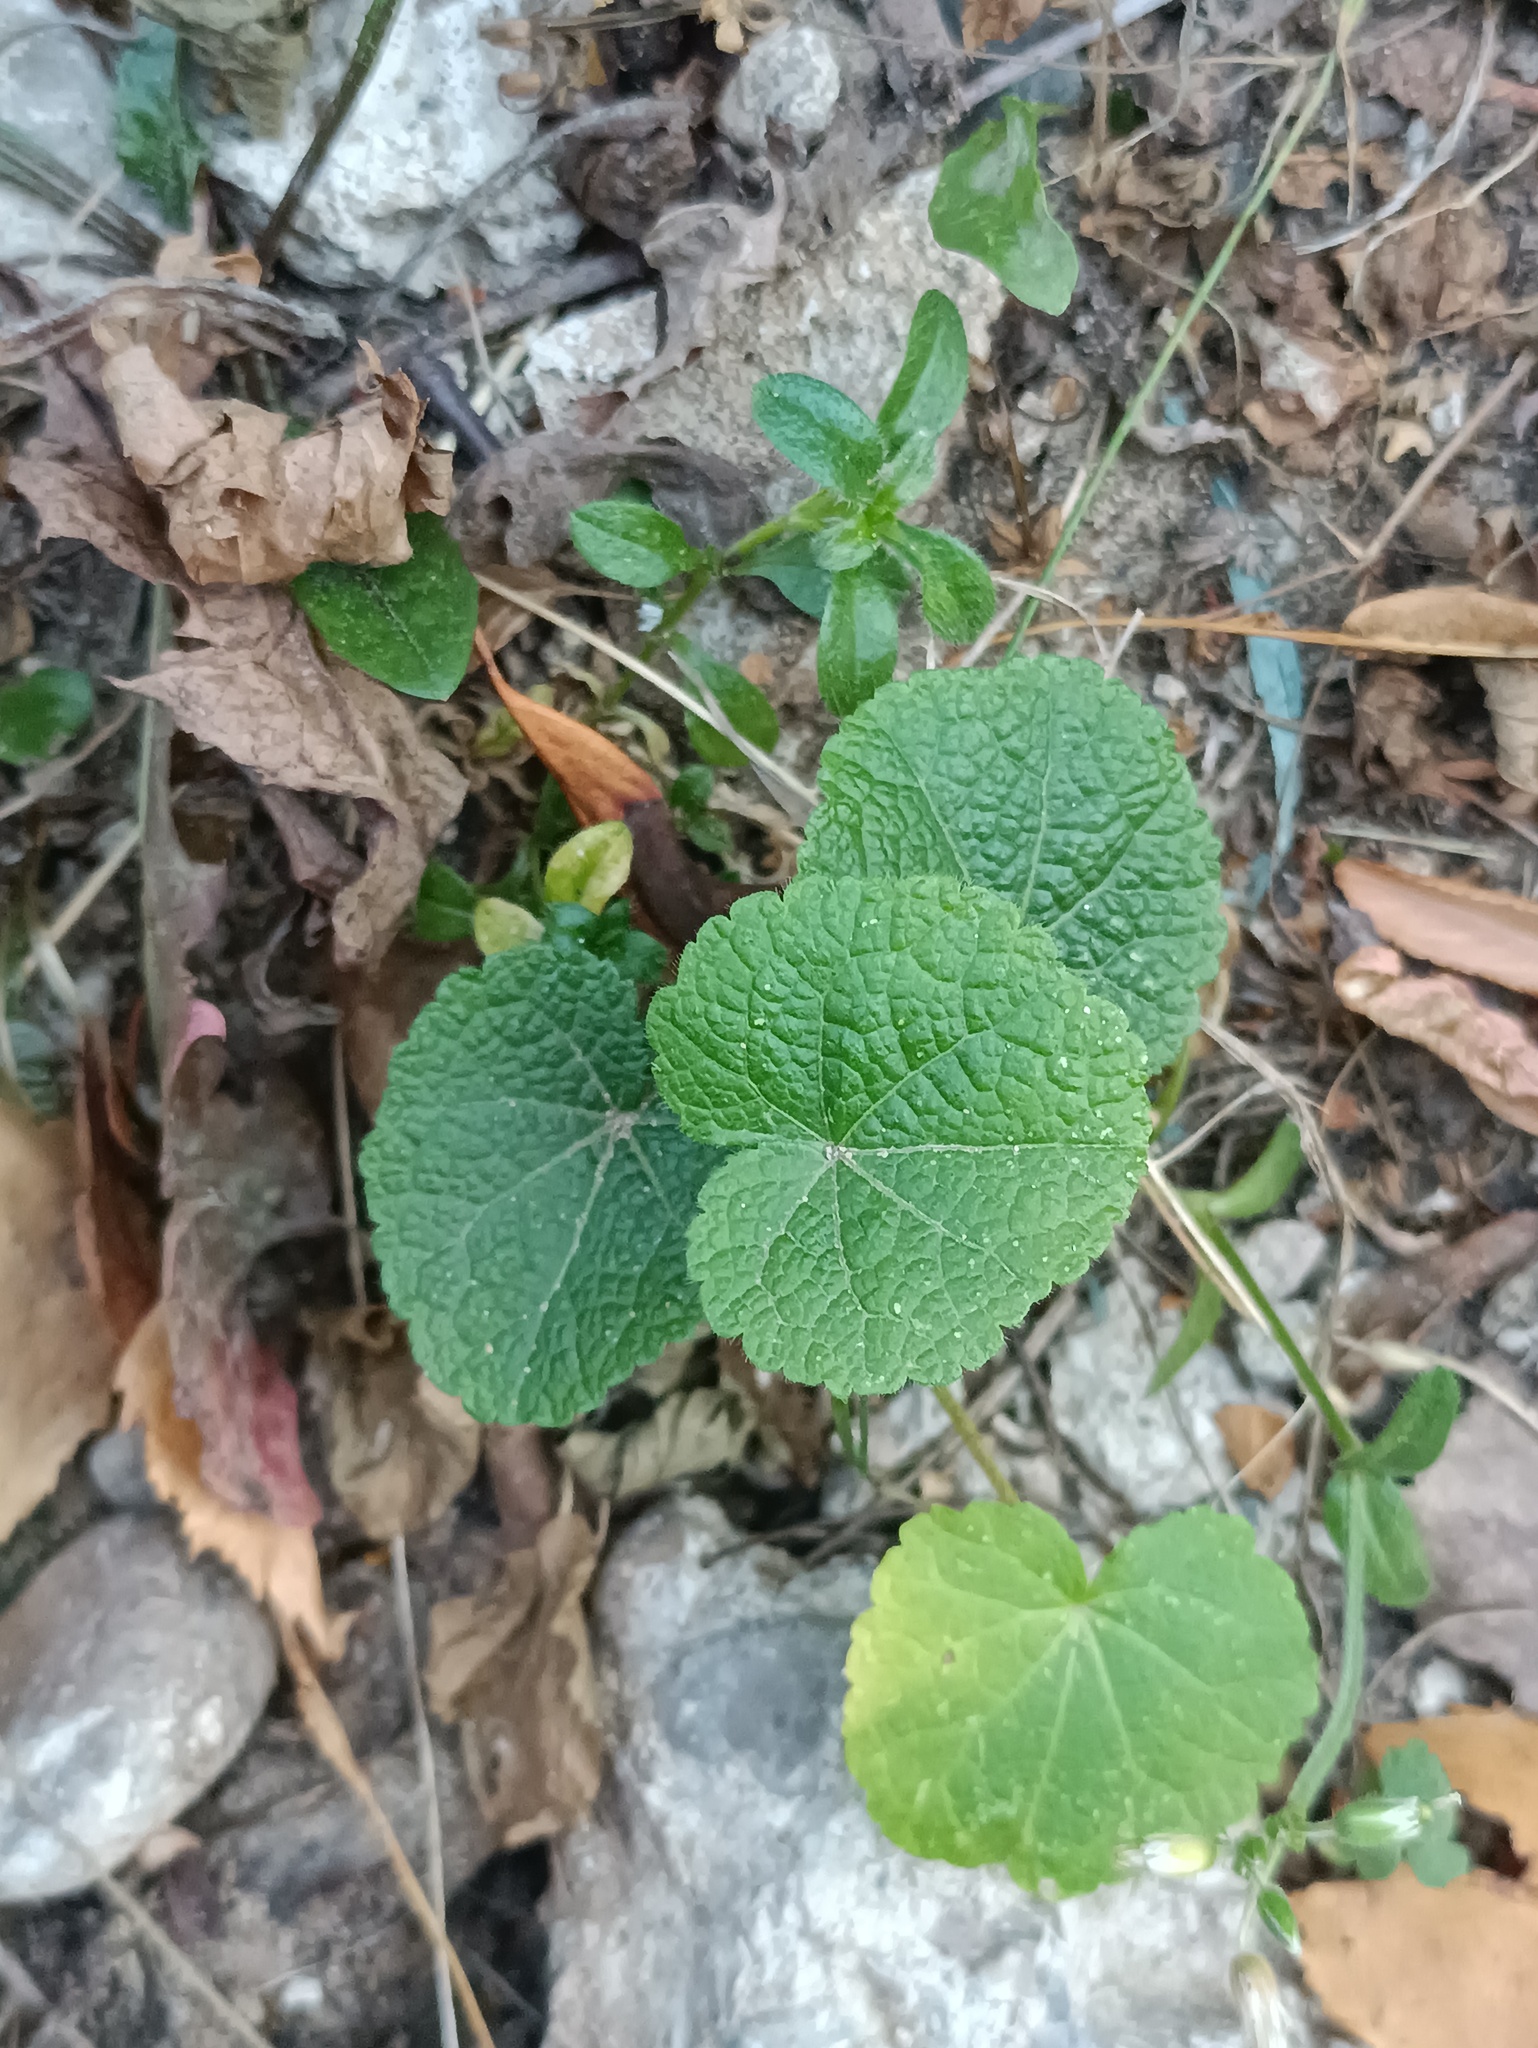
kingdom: Plantae
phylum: Tracheophyta
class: Magnoliopsida
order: Malvales
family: Malvaceae
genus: Alcea
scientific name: Alcea rosea
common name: Hollyhock
